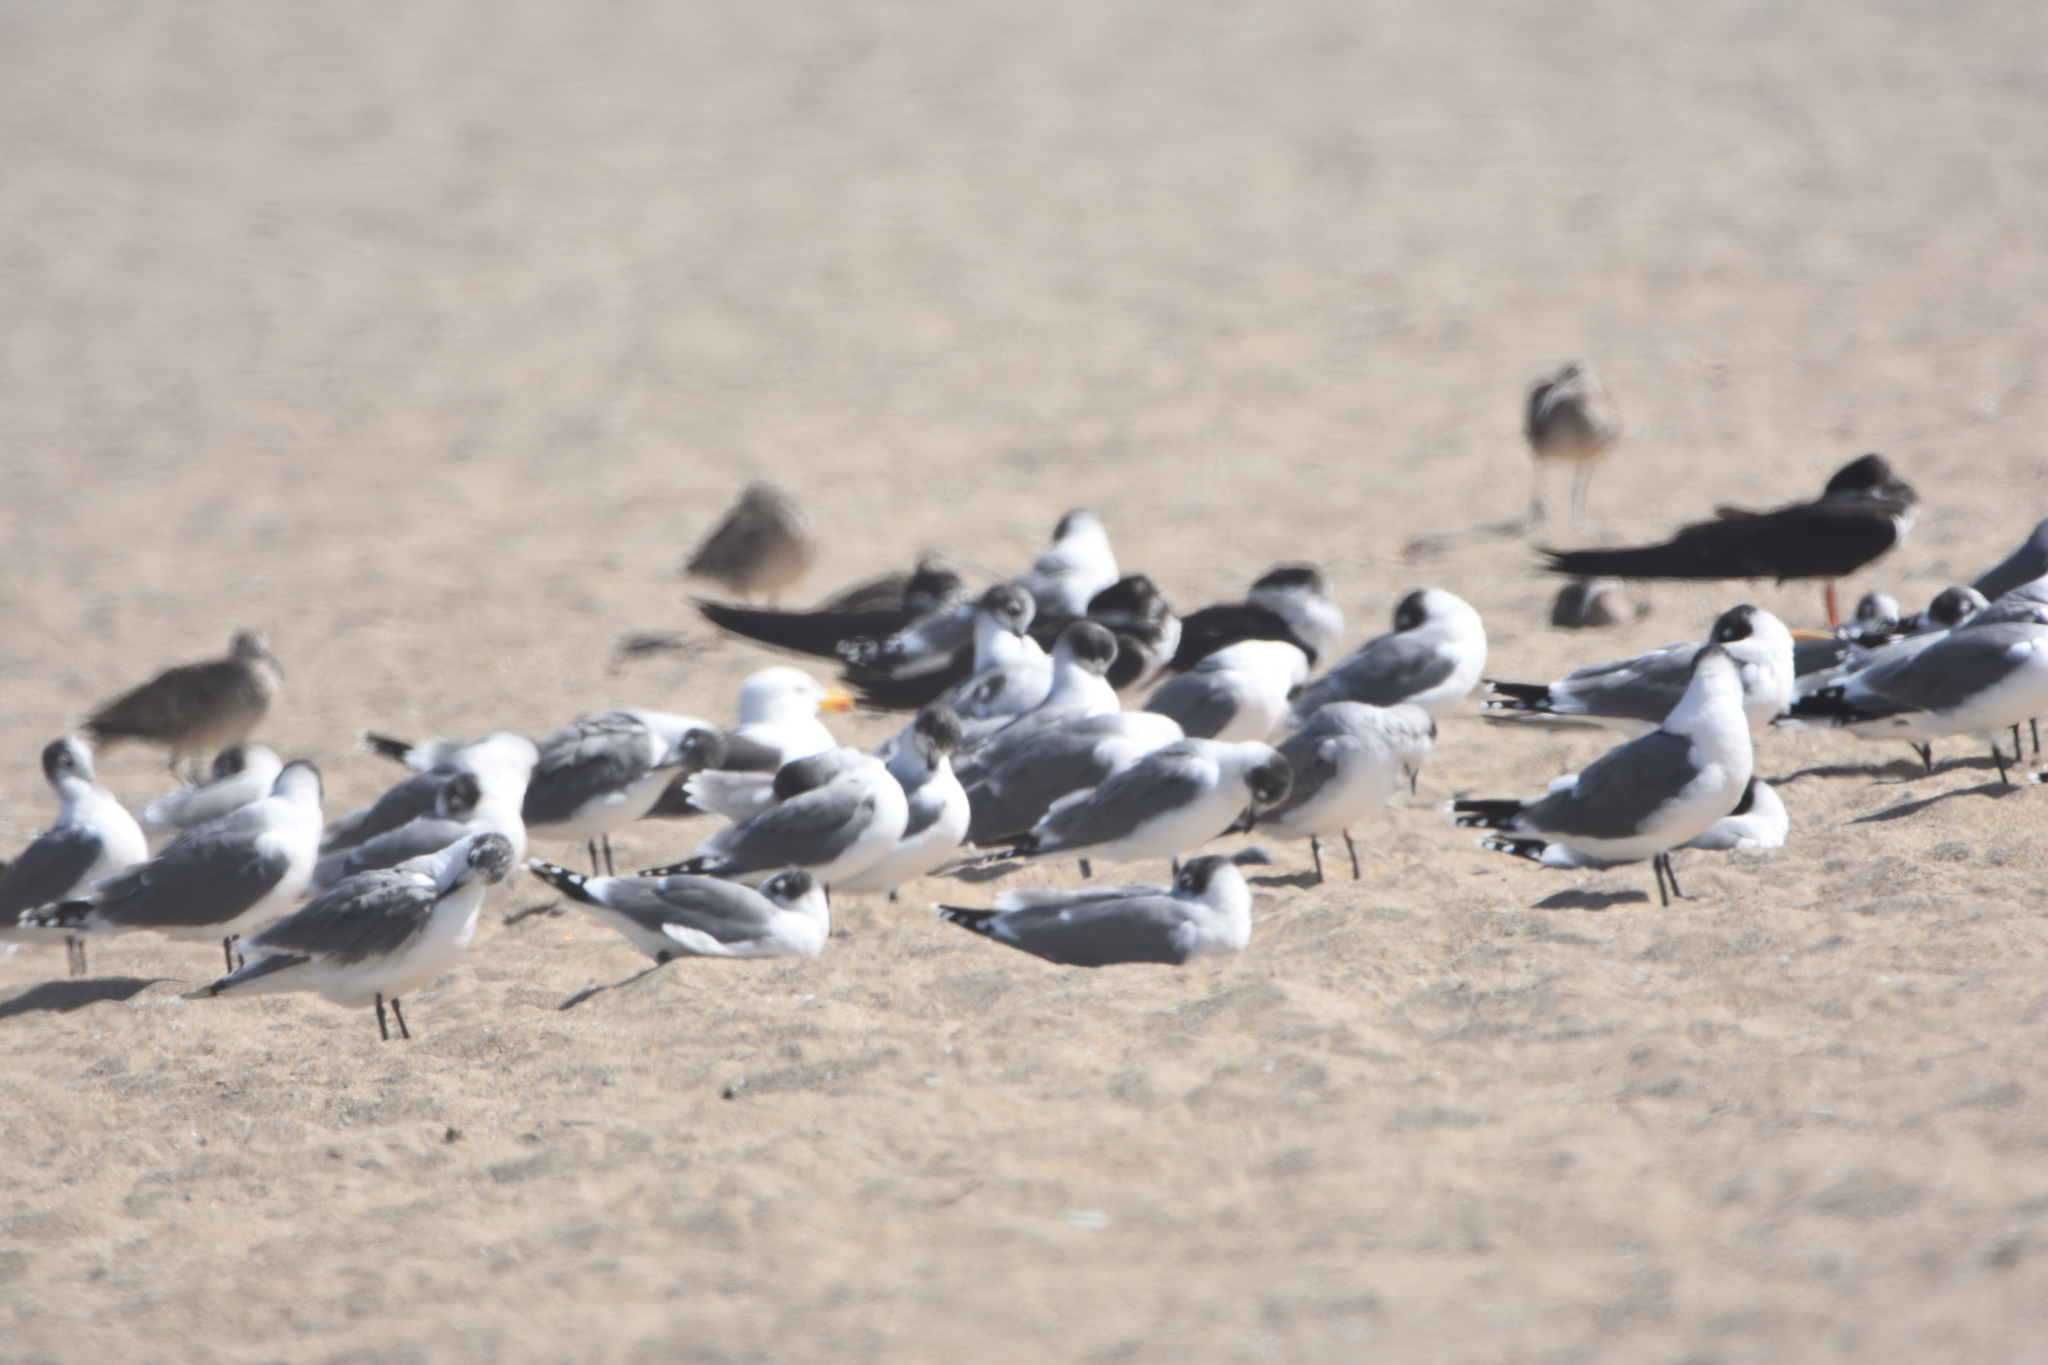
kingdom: Animalia
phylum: Chordata
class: Aves
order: Charadriiformes
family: Laridae
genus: Leucophaeus
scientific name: Leucophaeus pipixcan
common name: Franklin's gull
